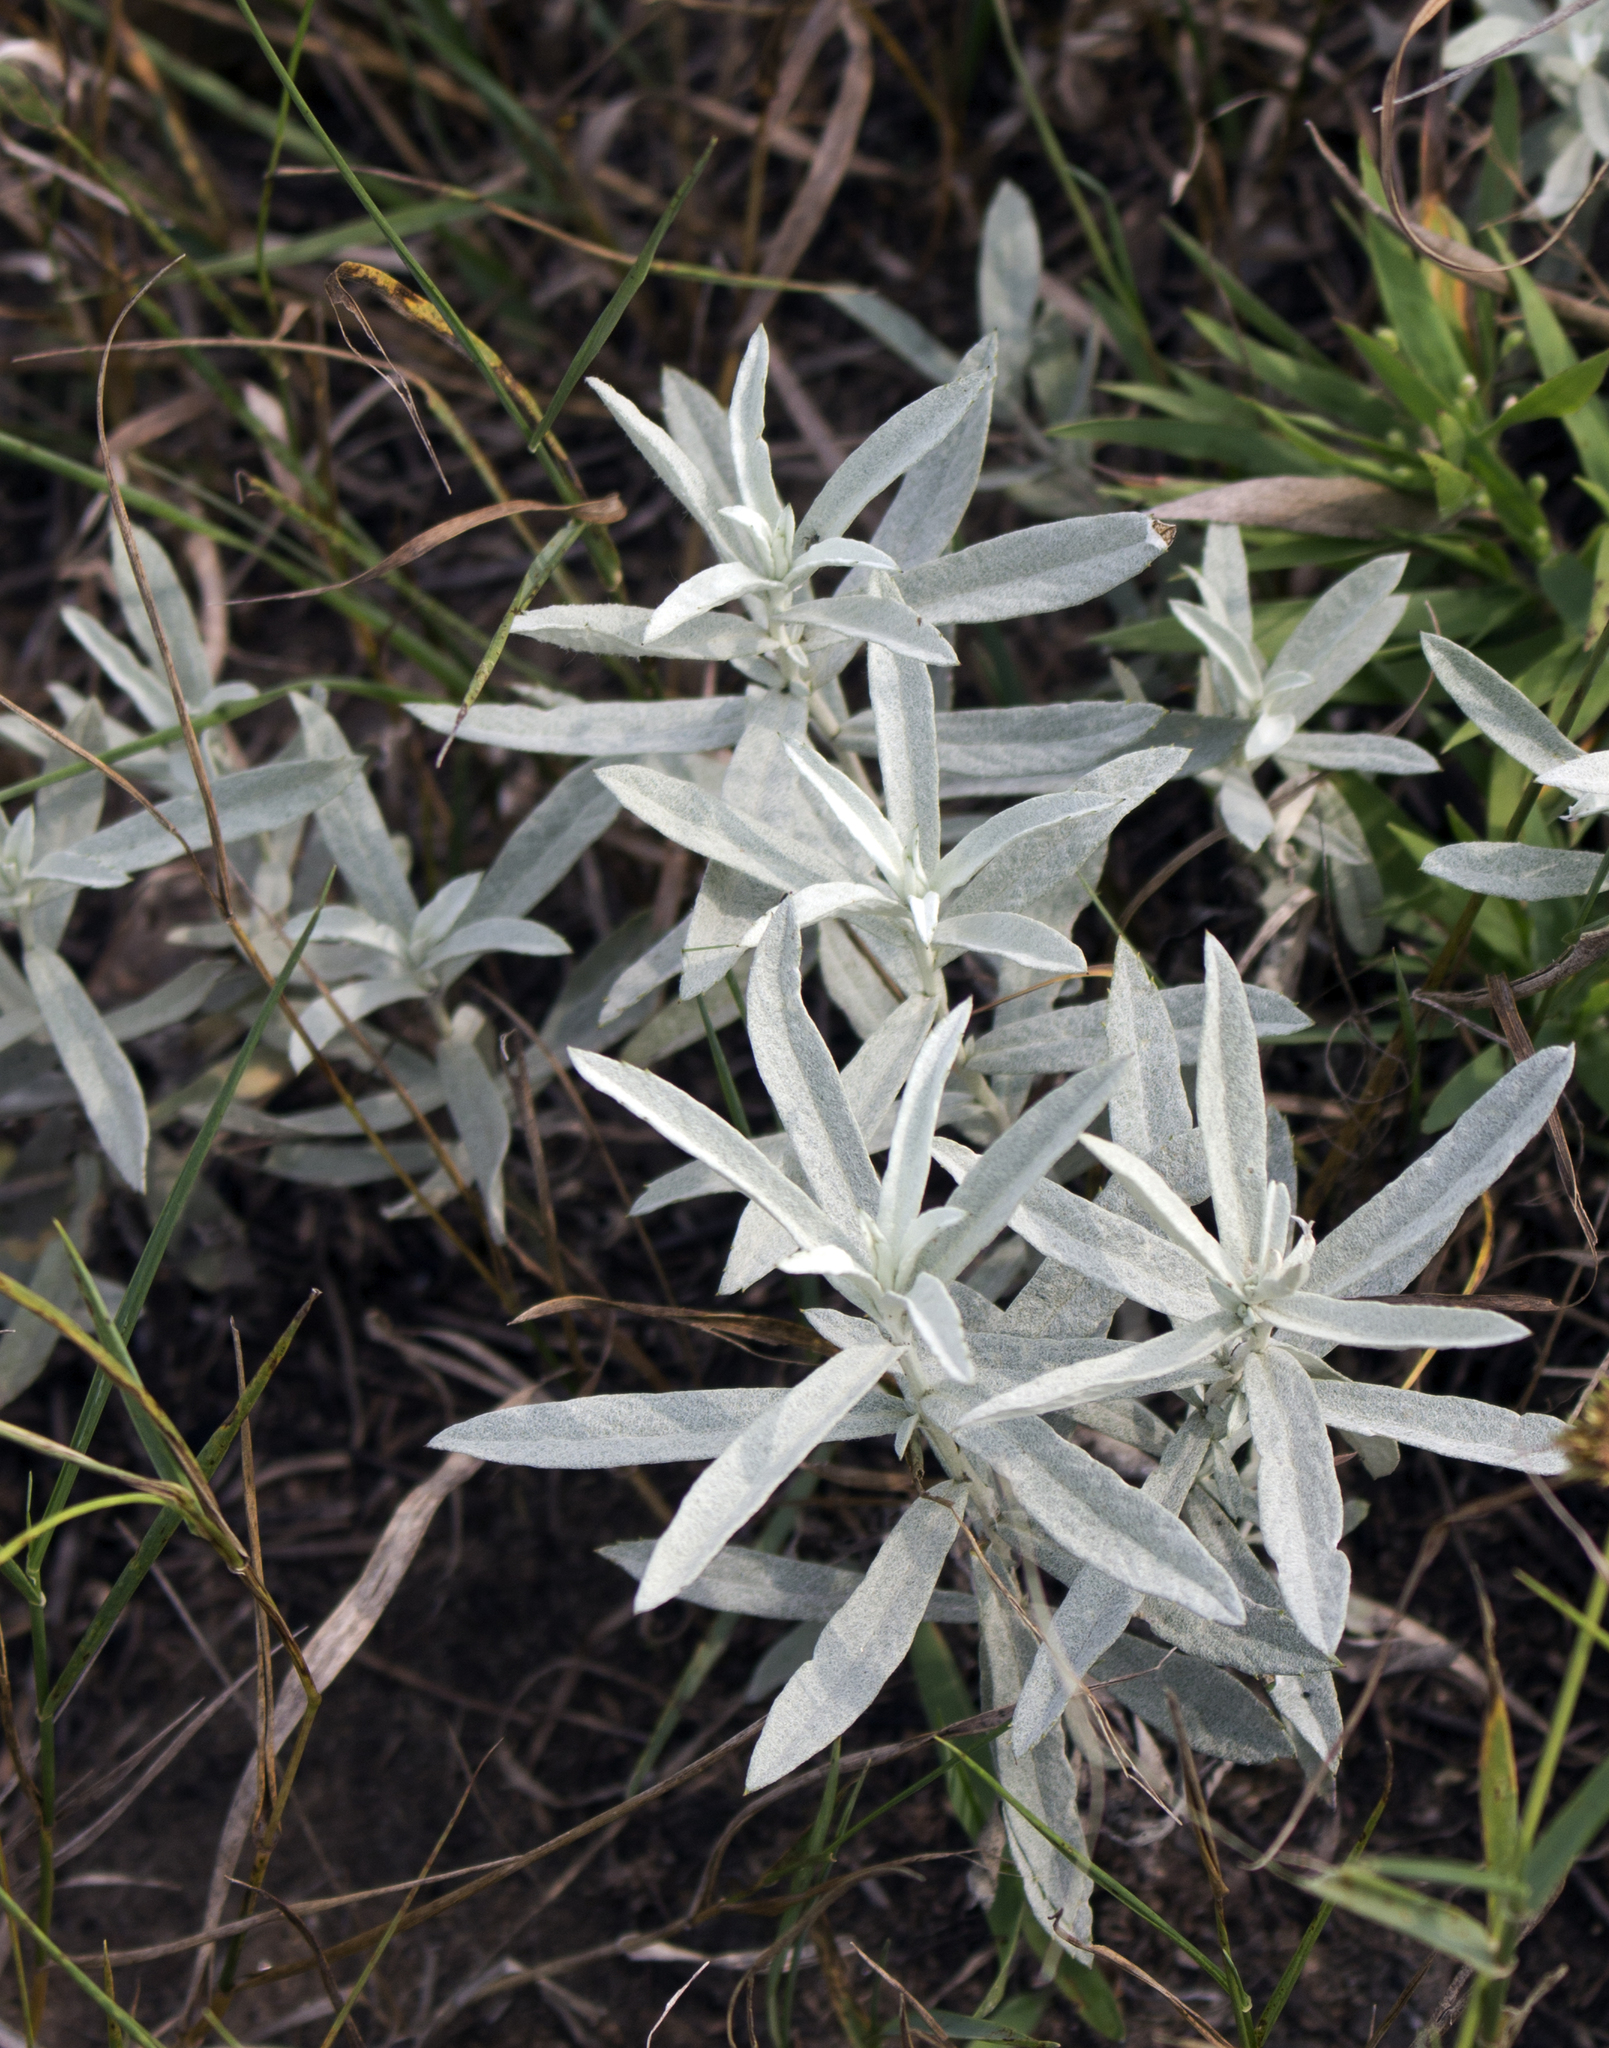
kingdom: Plantae
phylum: Tracheophyta
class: Magnoliopsida
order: Asterales
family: Asteraceae
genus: Artemisia
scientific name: Artemisia ludoviciana
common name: Western mugwort
